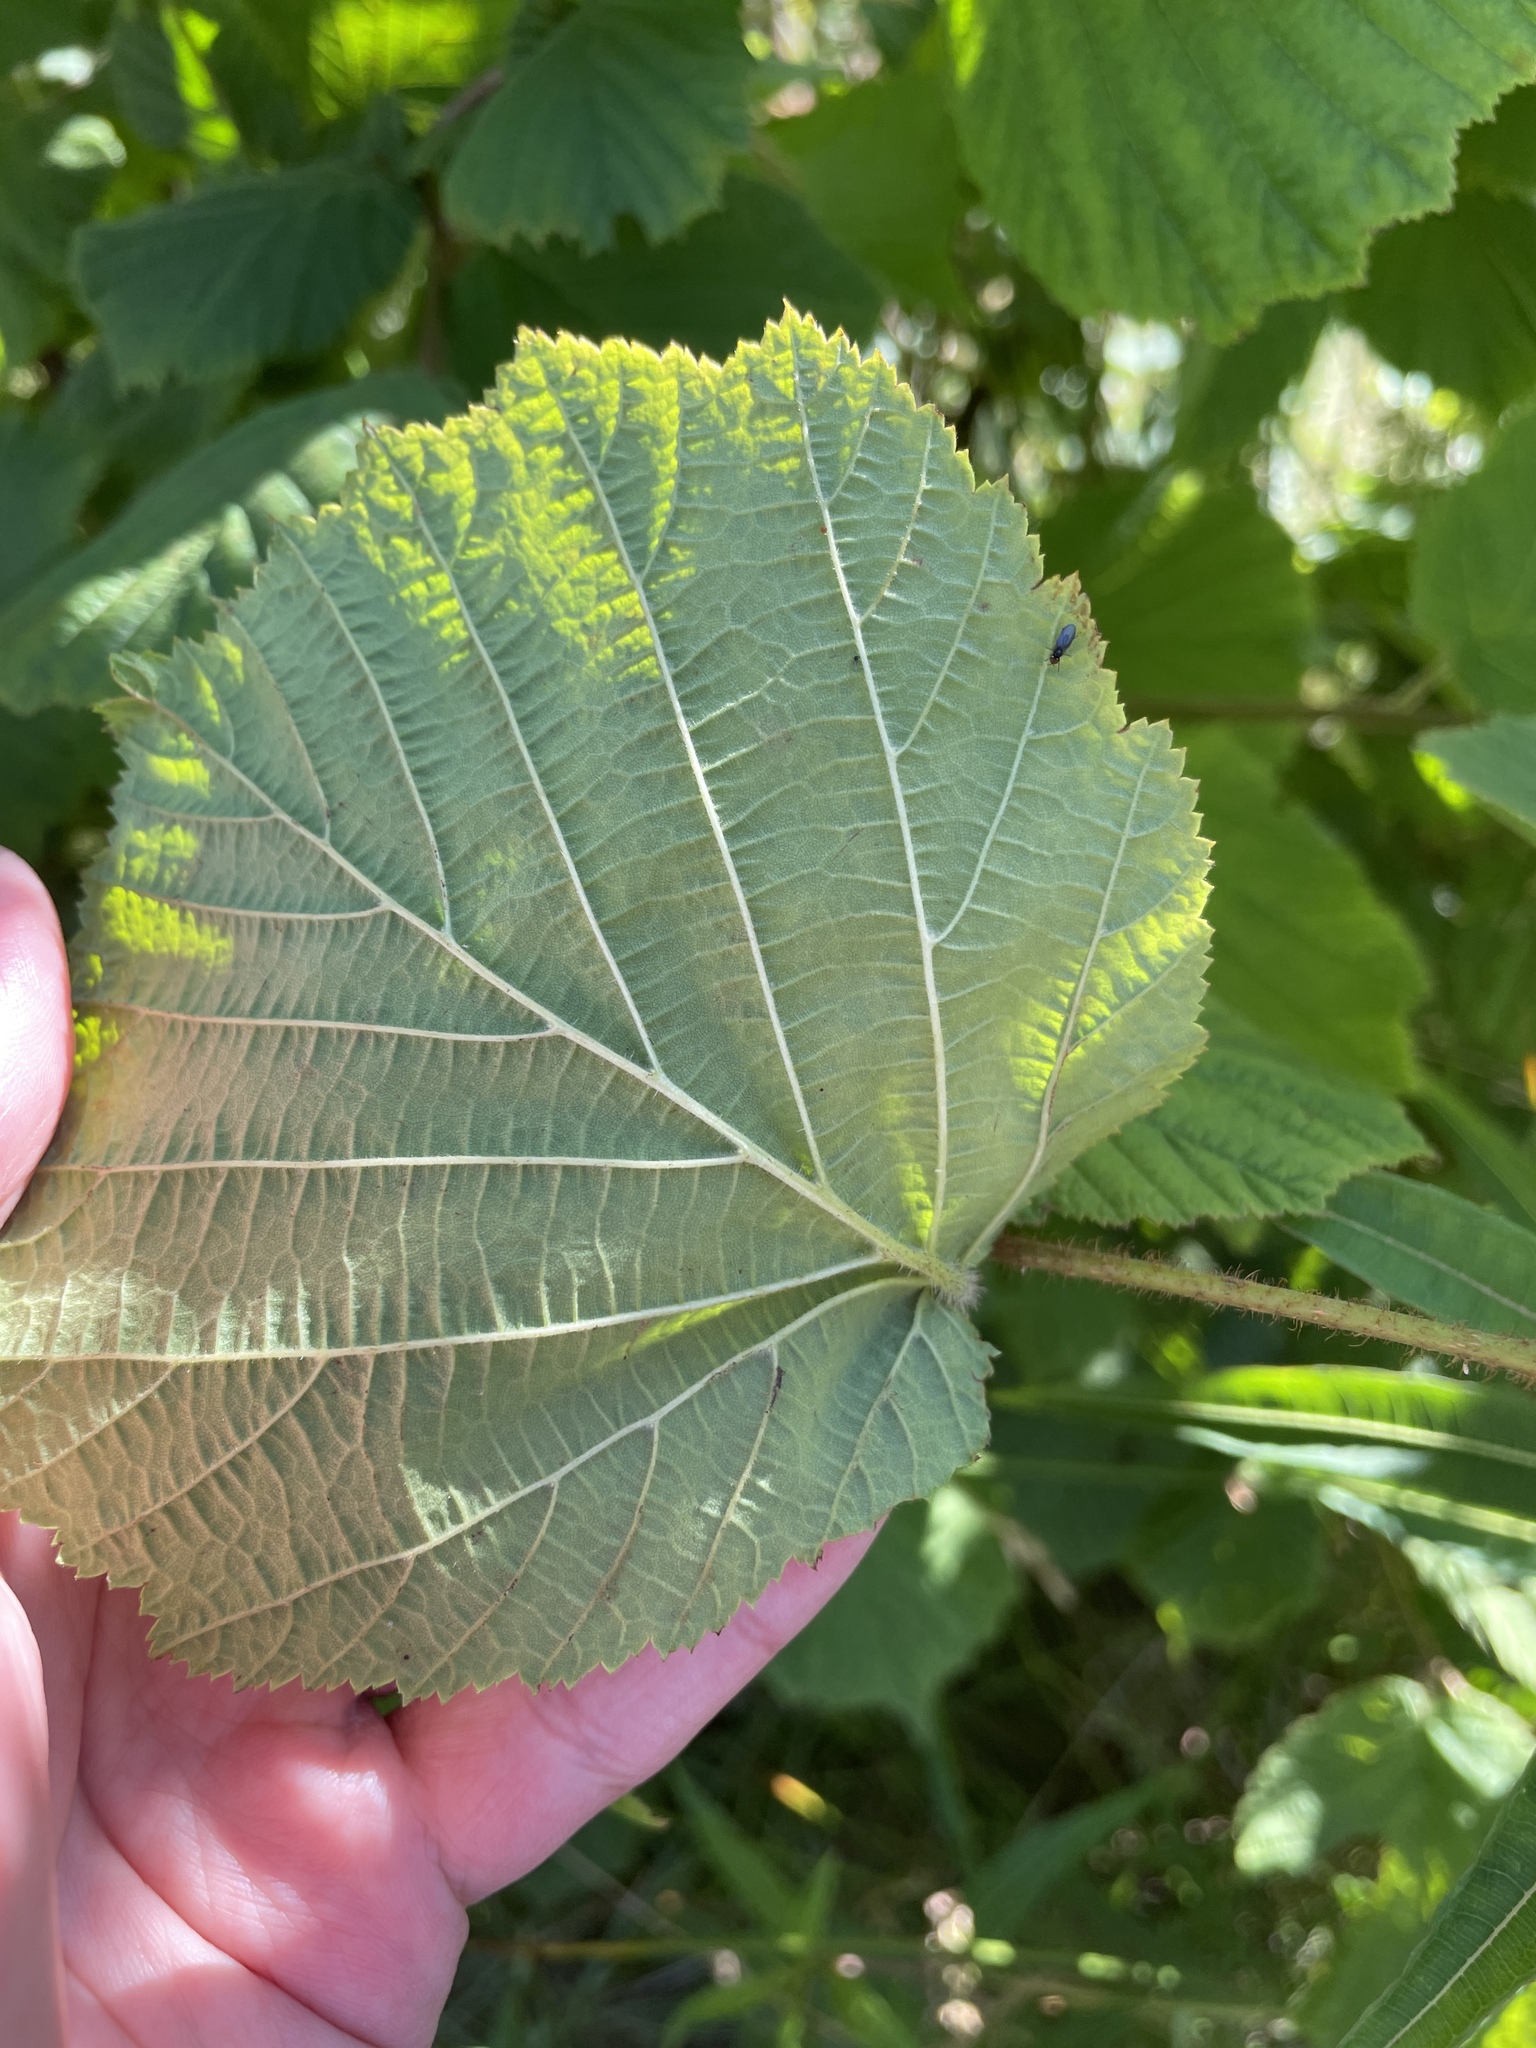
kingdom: Plantae
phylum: Tracheophyta
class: Magnoliopsida
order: Fagales
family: Betulaceae
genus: Corylus
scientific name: Corylus avellana
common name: European hazel
